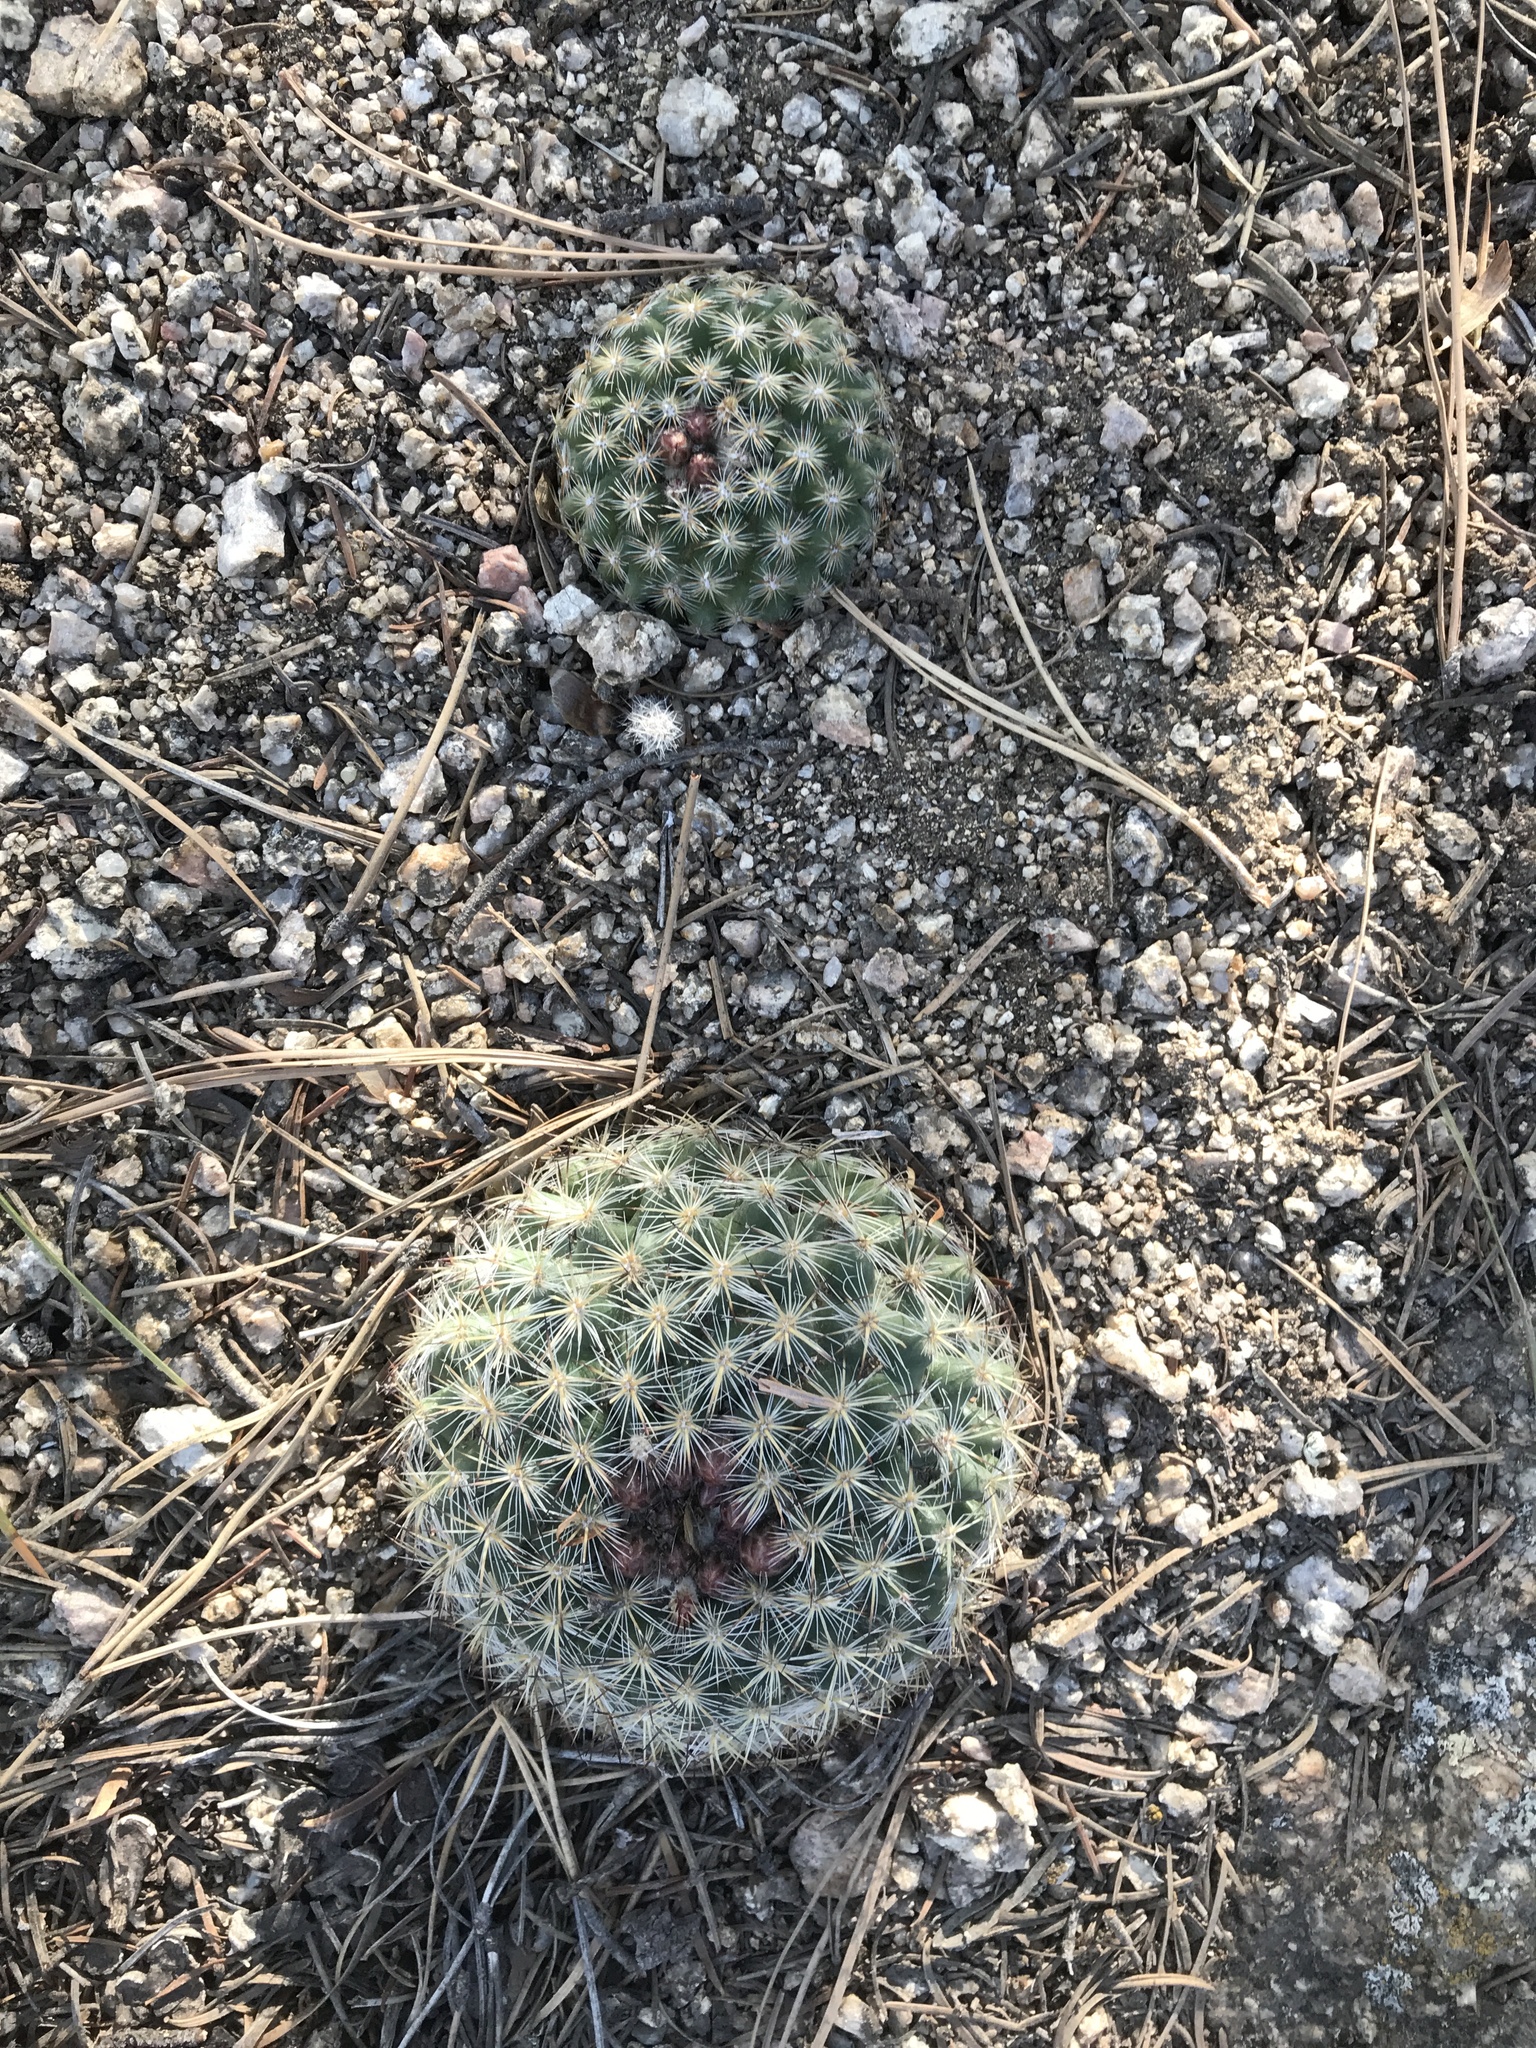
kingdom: Plantae
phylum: Tracheophyta
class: Magnoliopsida
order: Caryophyllales
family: Cactaceae
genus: Pediocactus
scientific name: Pediocactus simpsonii
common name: Simpson's hedgehog cactus
